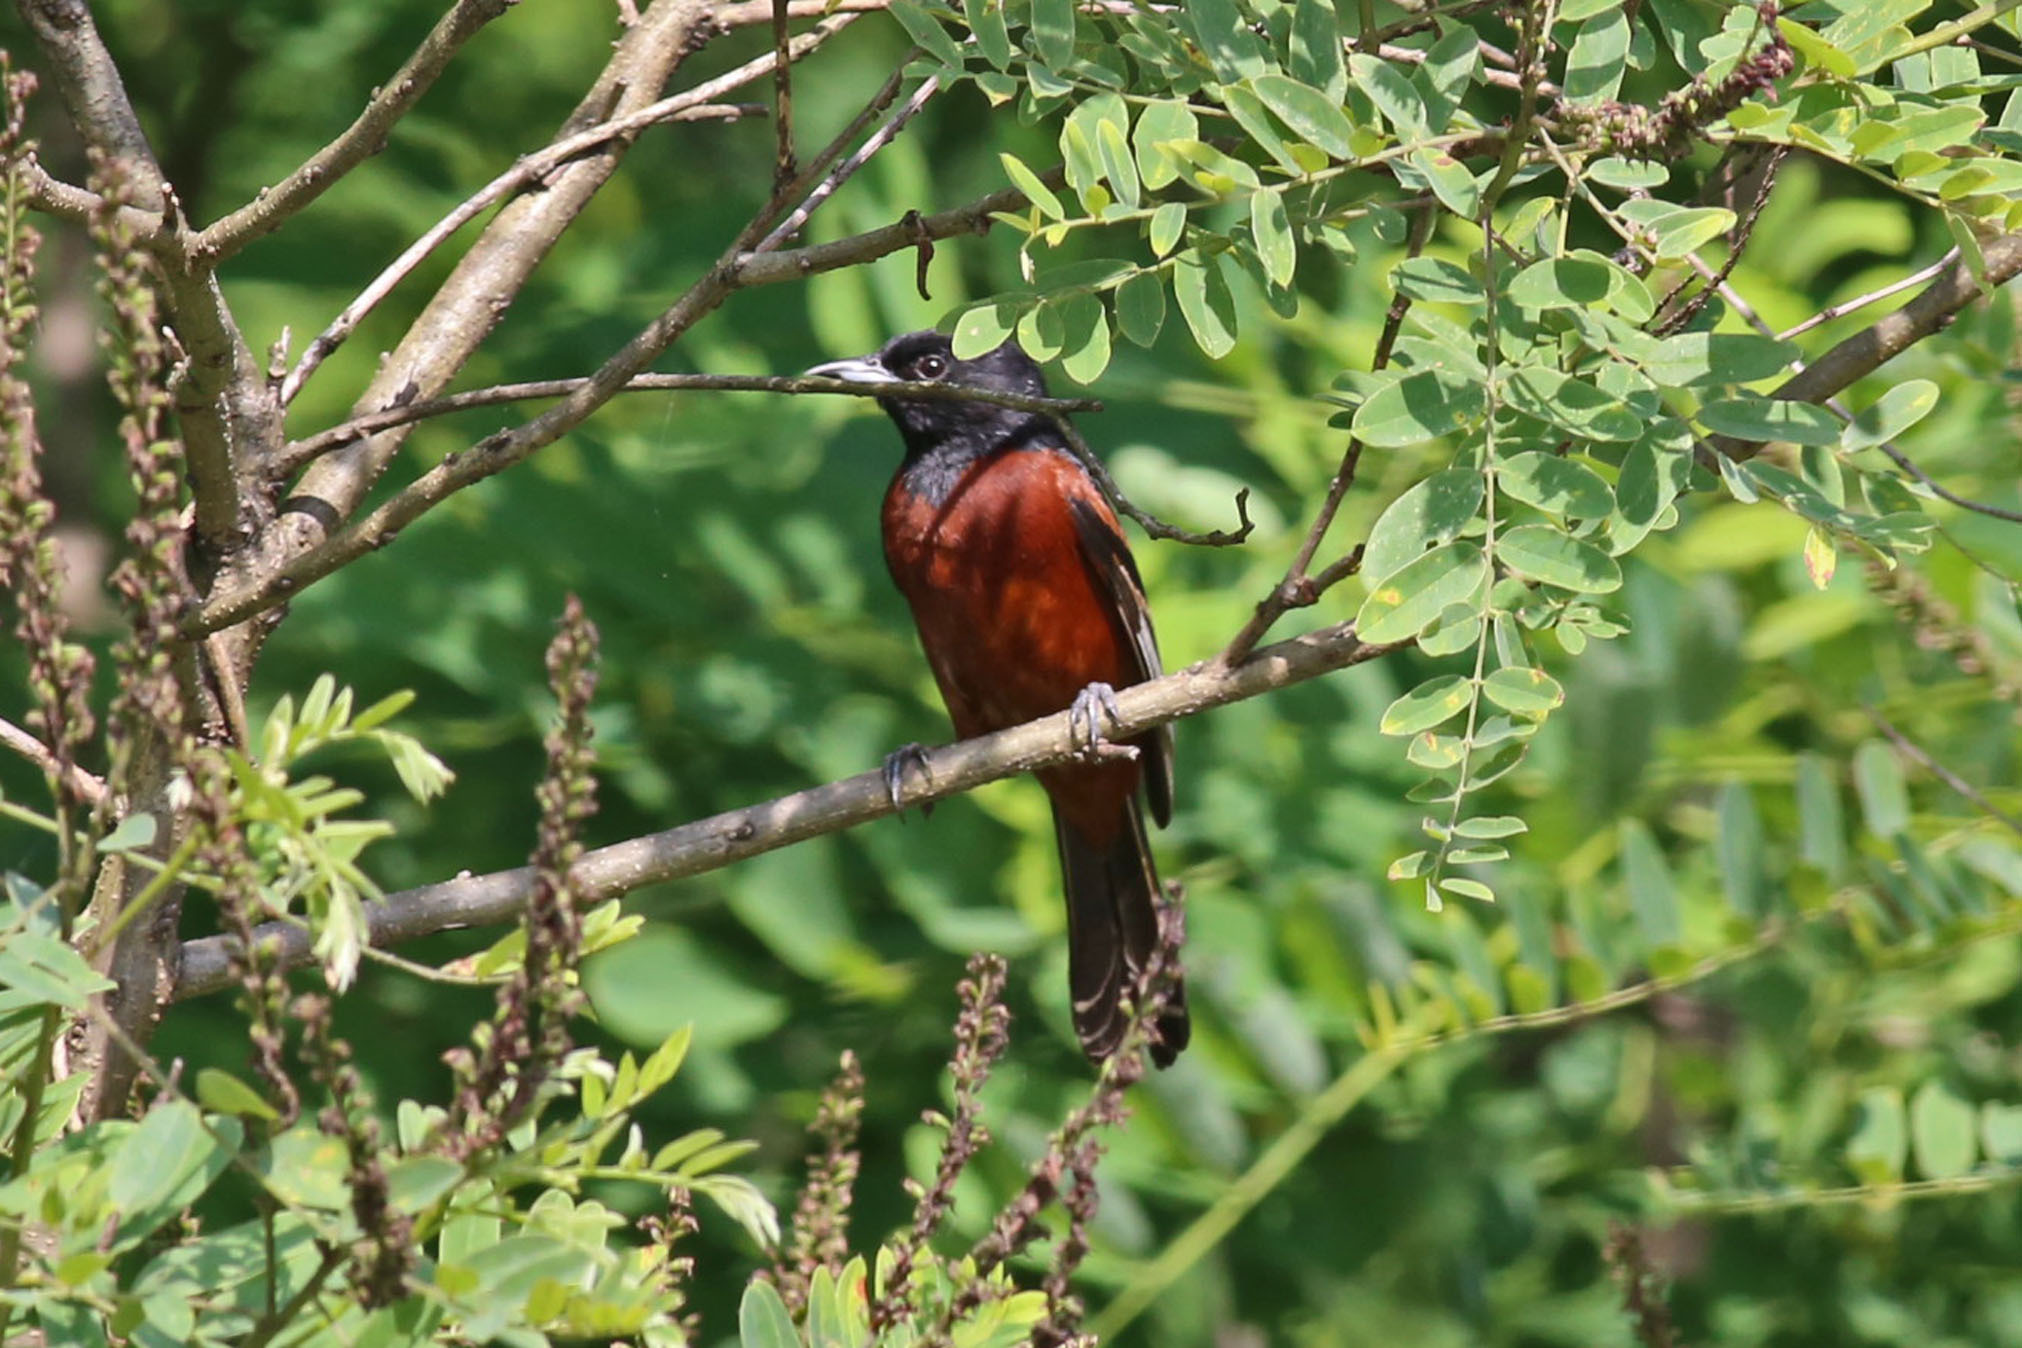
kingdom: Animalia
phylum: Chordata
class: Aves
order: Passeriformes
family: Icteridae
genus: Icterus
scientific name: Icterus spurius
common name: Orchard oriole
